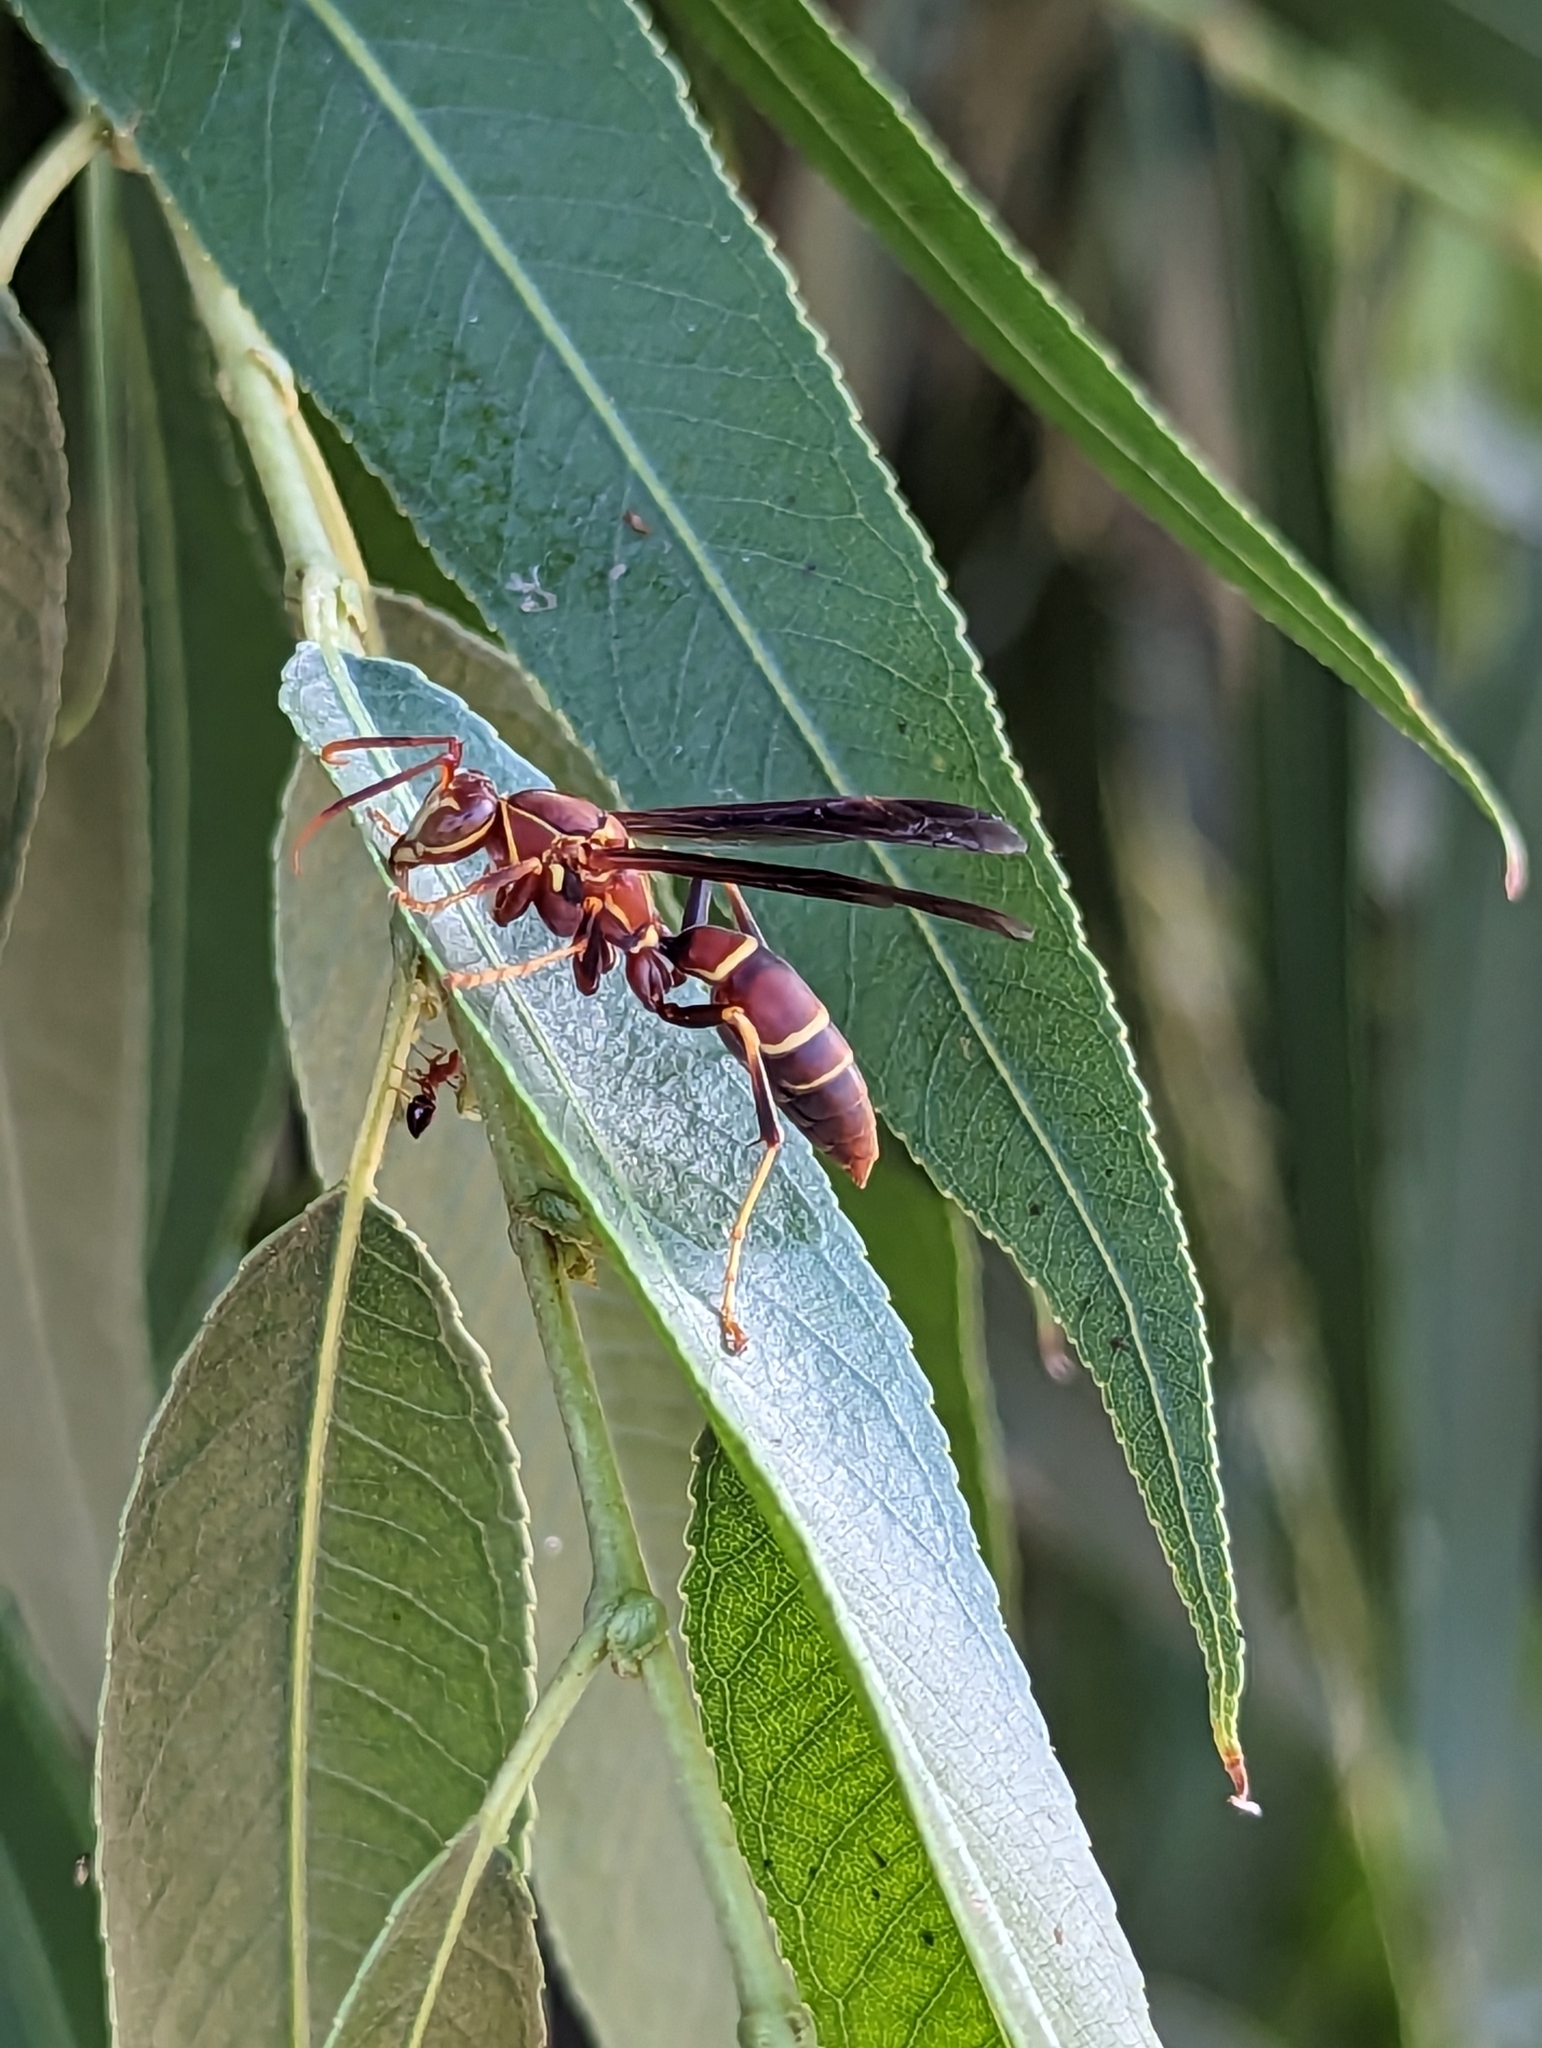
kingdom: Animalia
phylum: Arthropoda
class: Insecta
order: Hymenoptera
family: Eumenidae
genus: Polistes
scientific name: Polistes arizonensis
